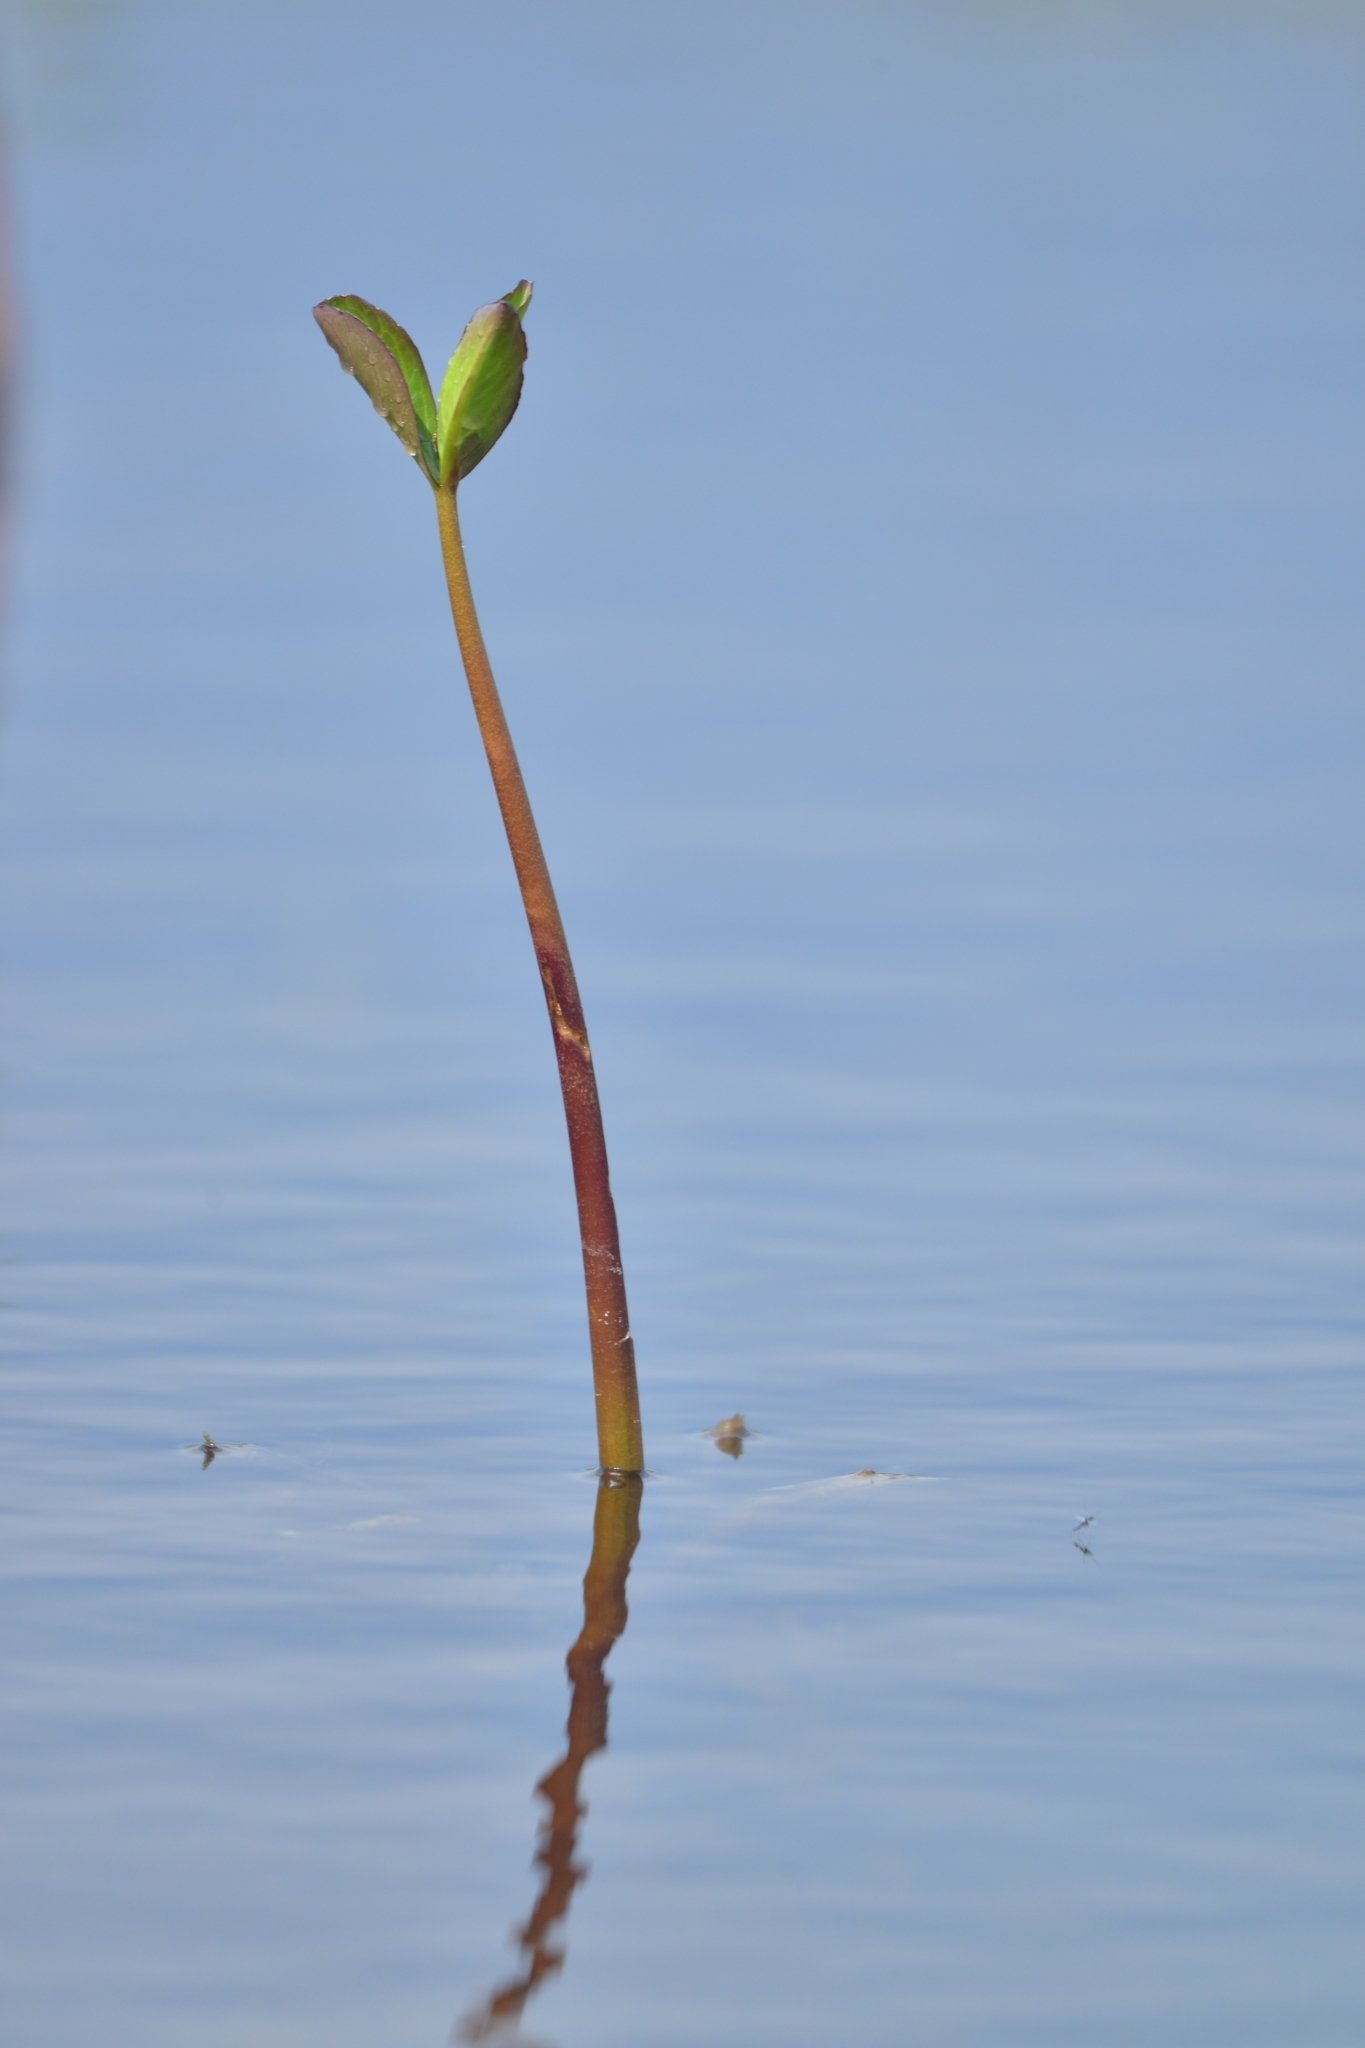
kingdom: Plantae
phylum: Tracheophyta
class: Magnoliopsida
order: Asterales
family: Menyanthaceae
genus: Menyanthes
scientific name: Menyanthes trifoliata
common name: Bogbean
